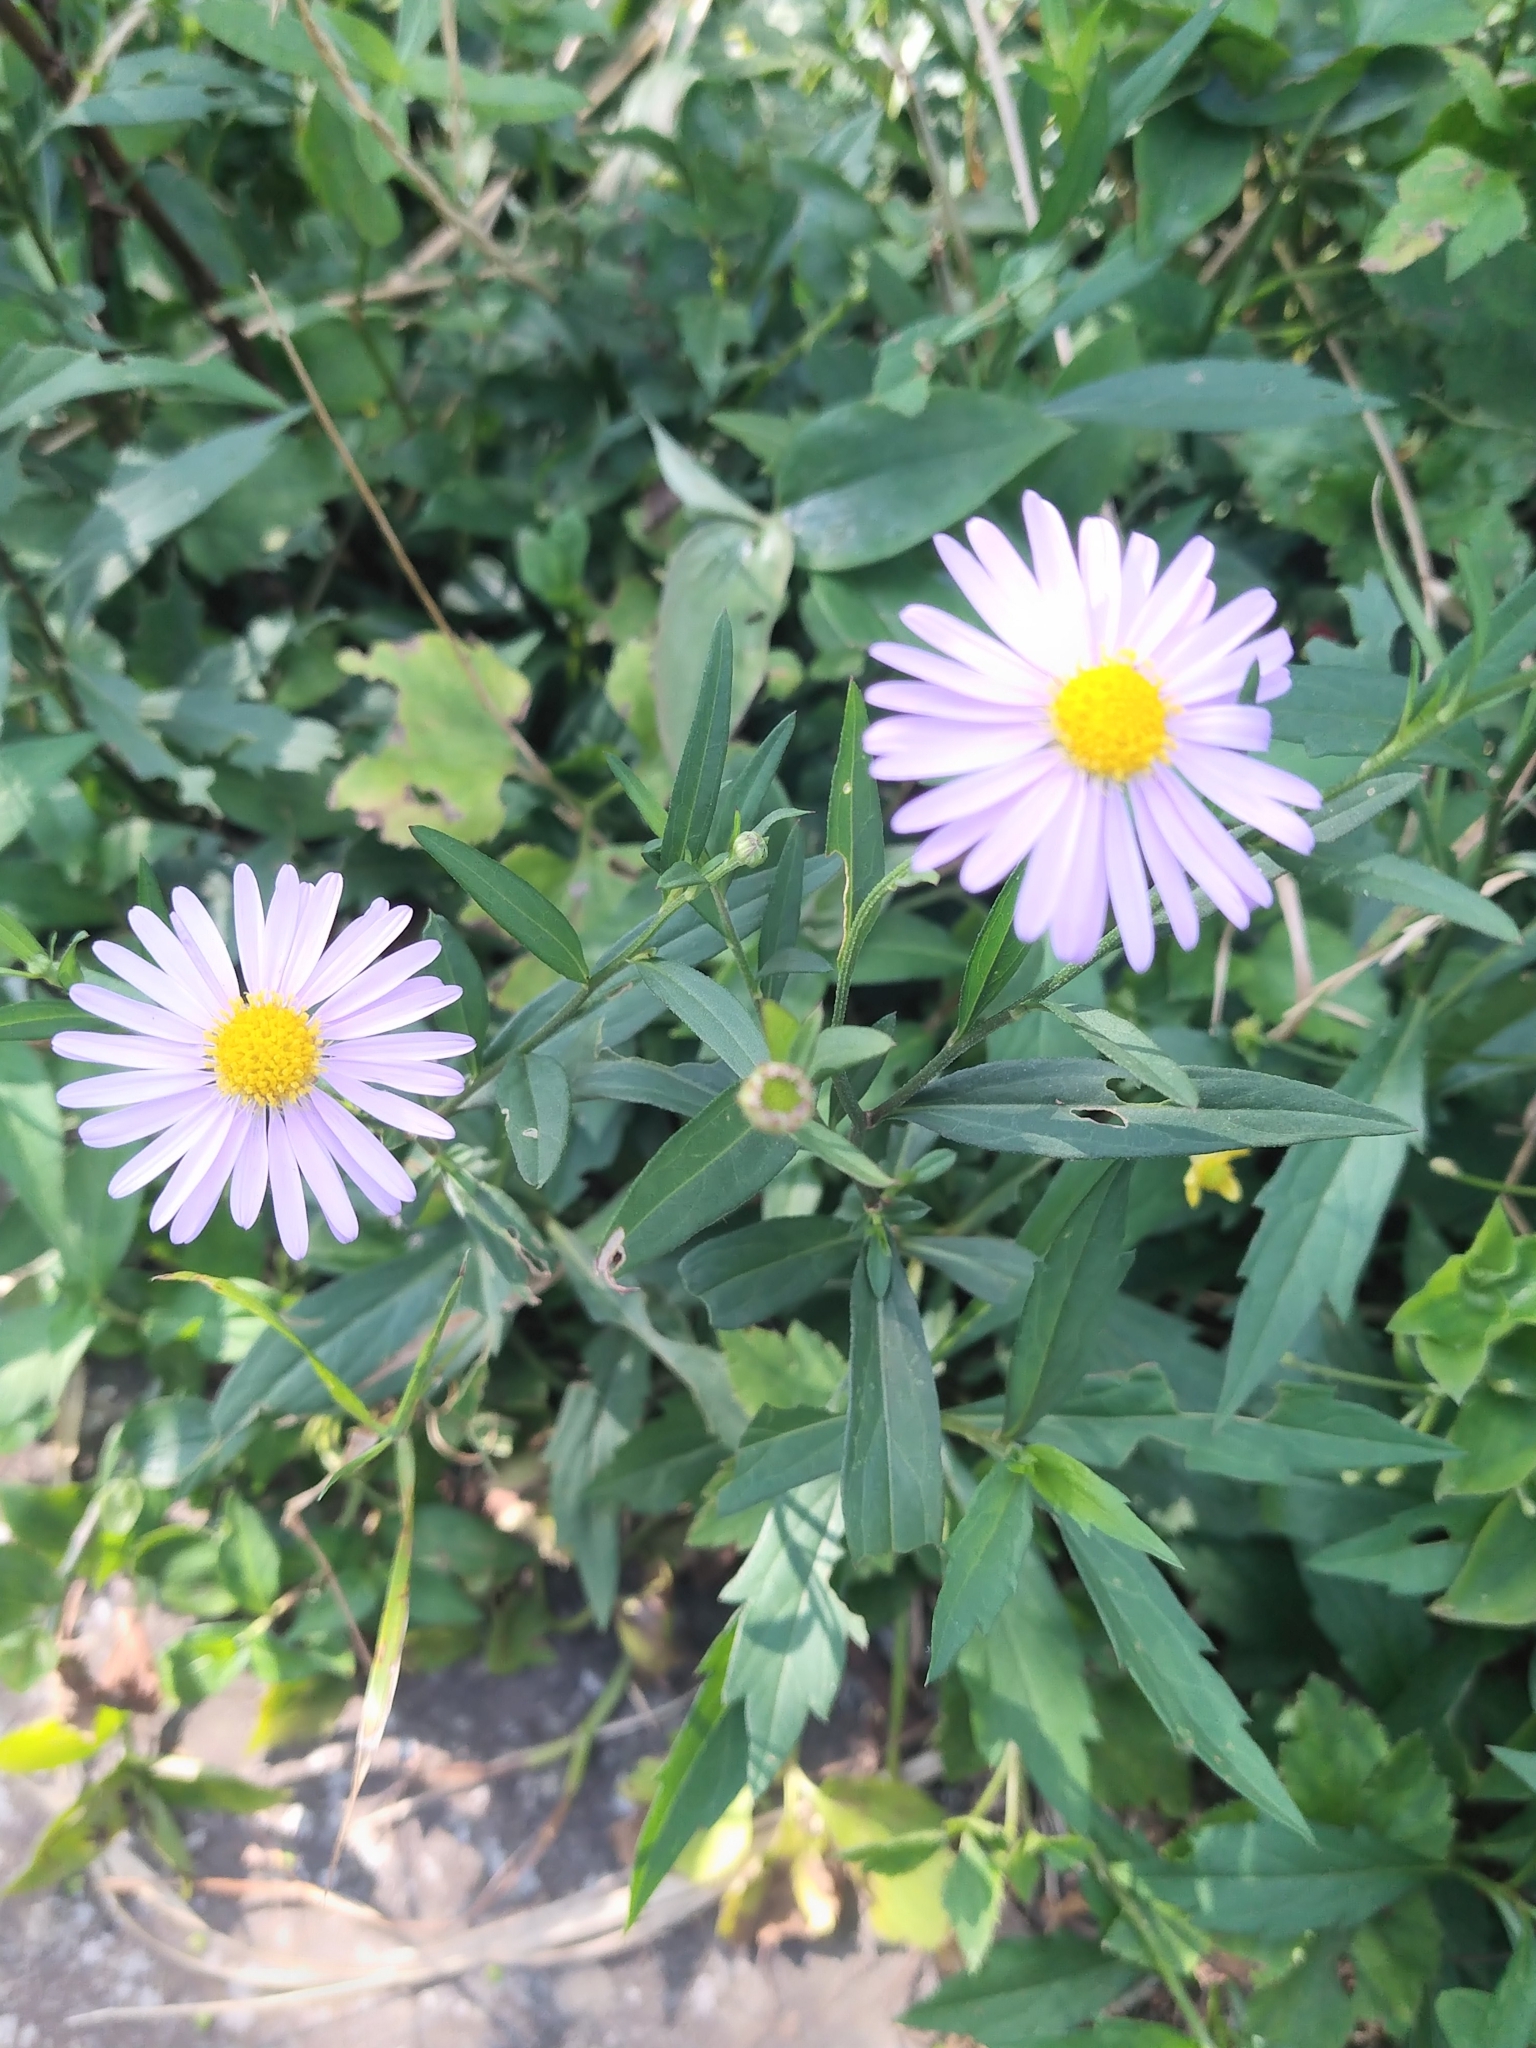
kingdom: Plantae
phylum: Tracheophyta
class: Magnoliopsida
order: Asterales
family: Asteraceae
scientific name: Asteraceae
